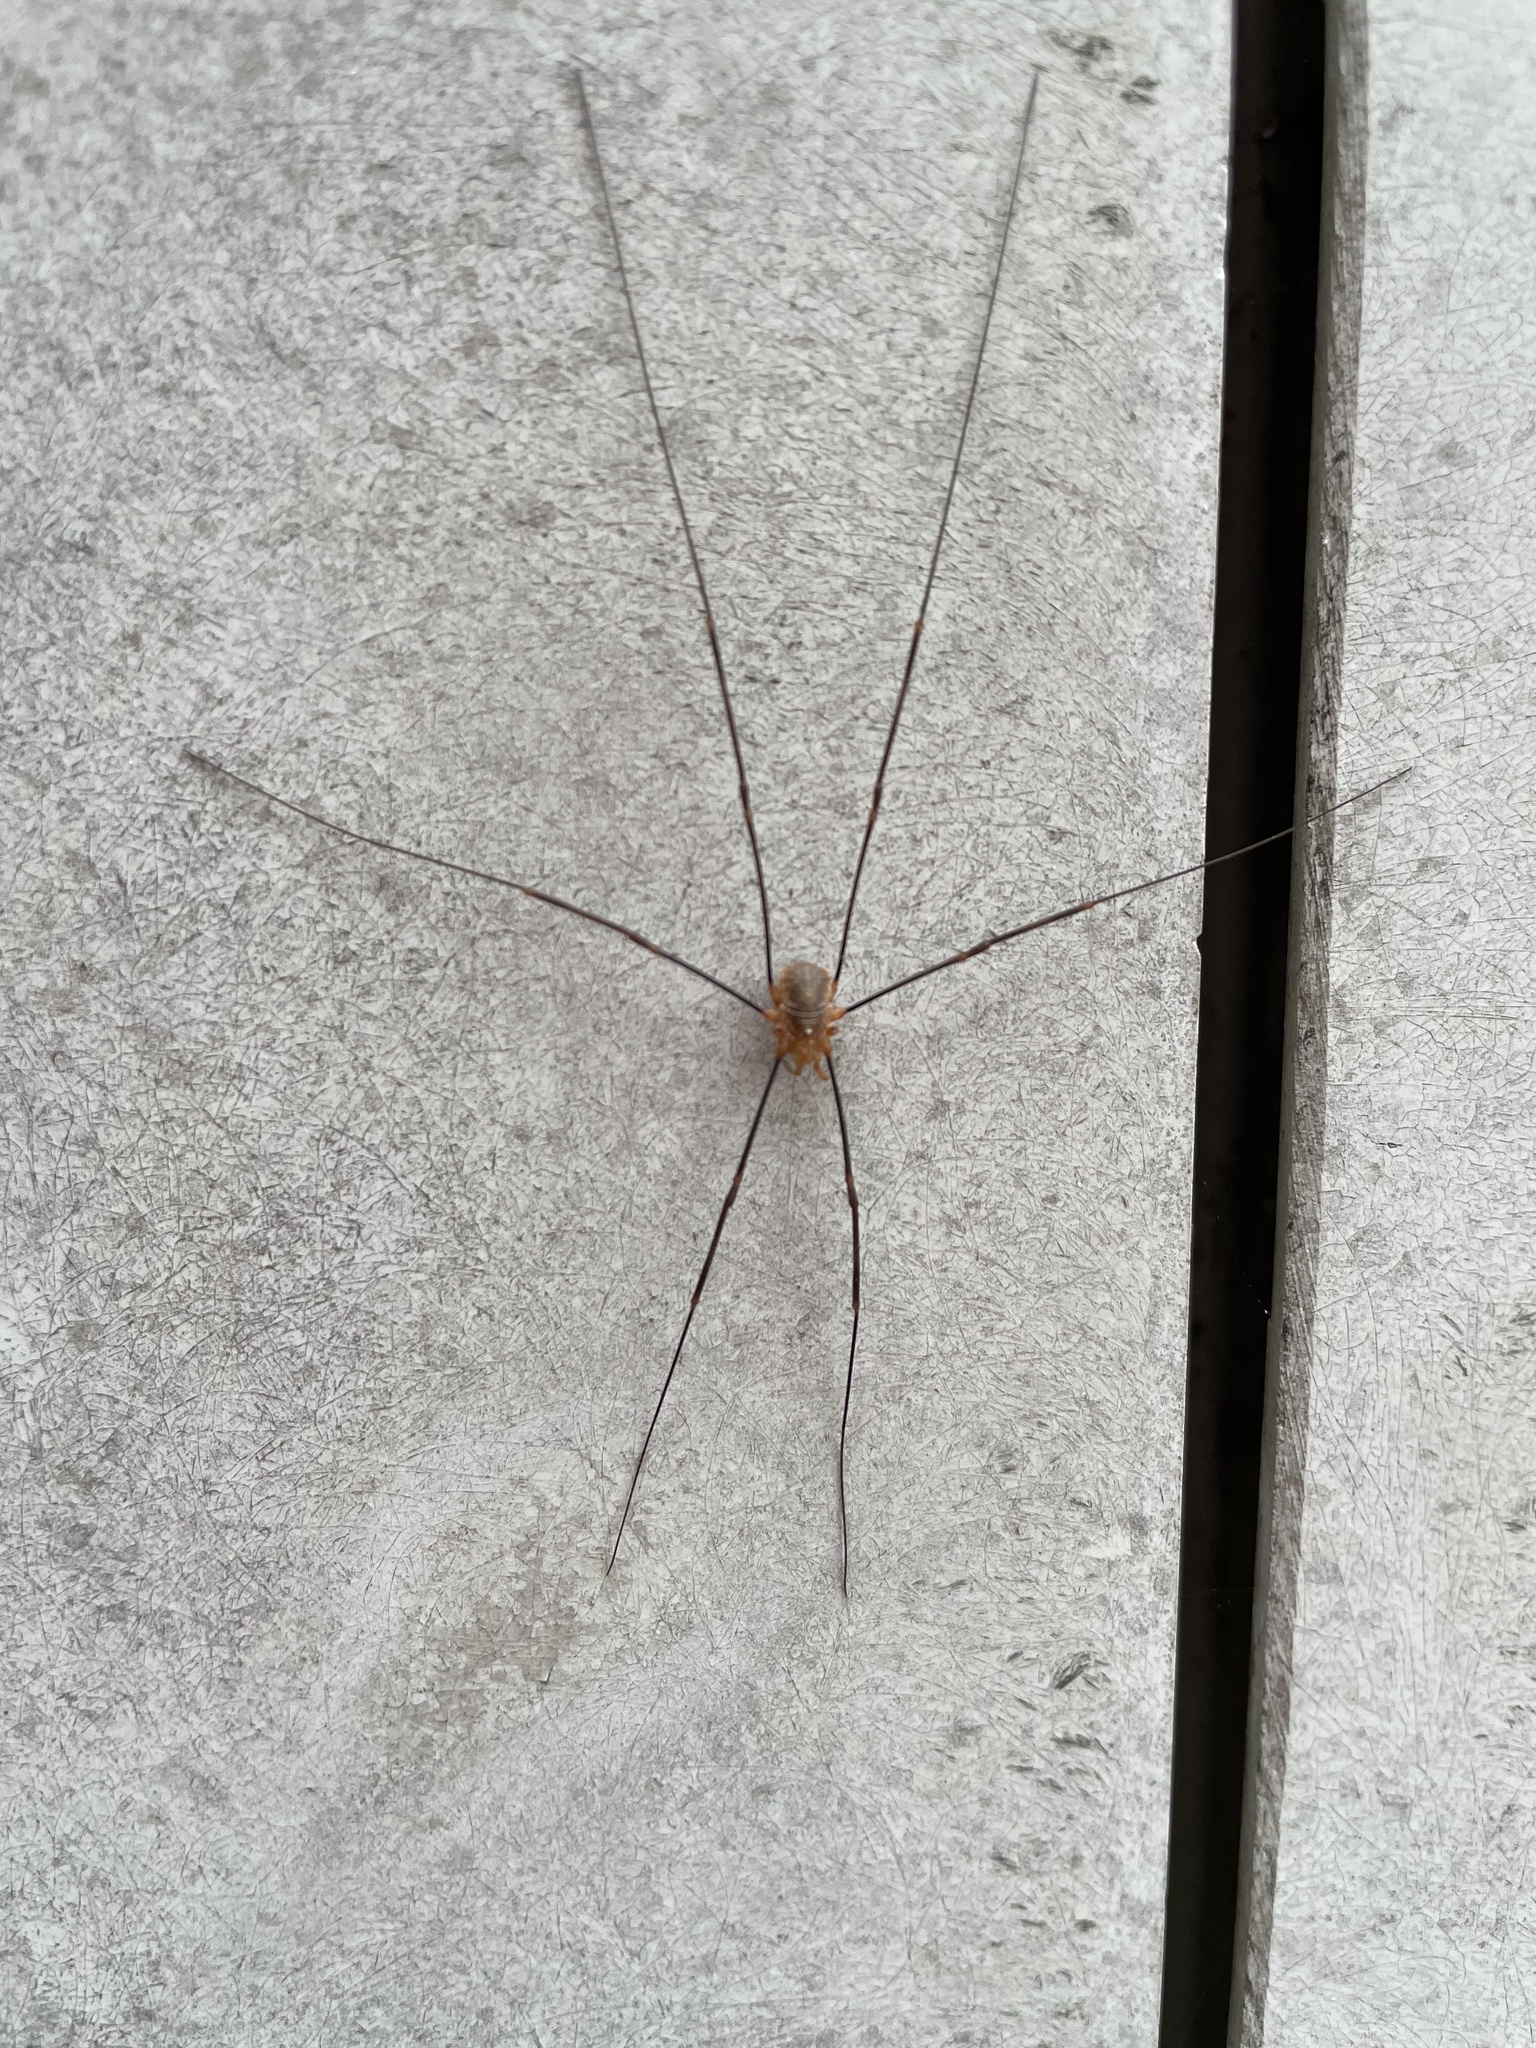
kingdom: Animalia
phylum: Arthropoda
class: Arachnida
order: Opiliones
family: Phalangiidae
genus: Opilio
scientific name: Opilio canestrinii
